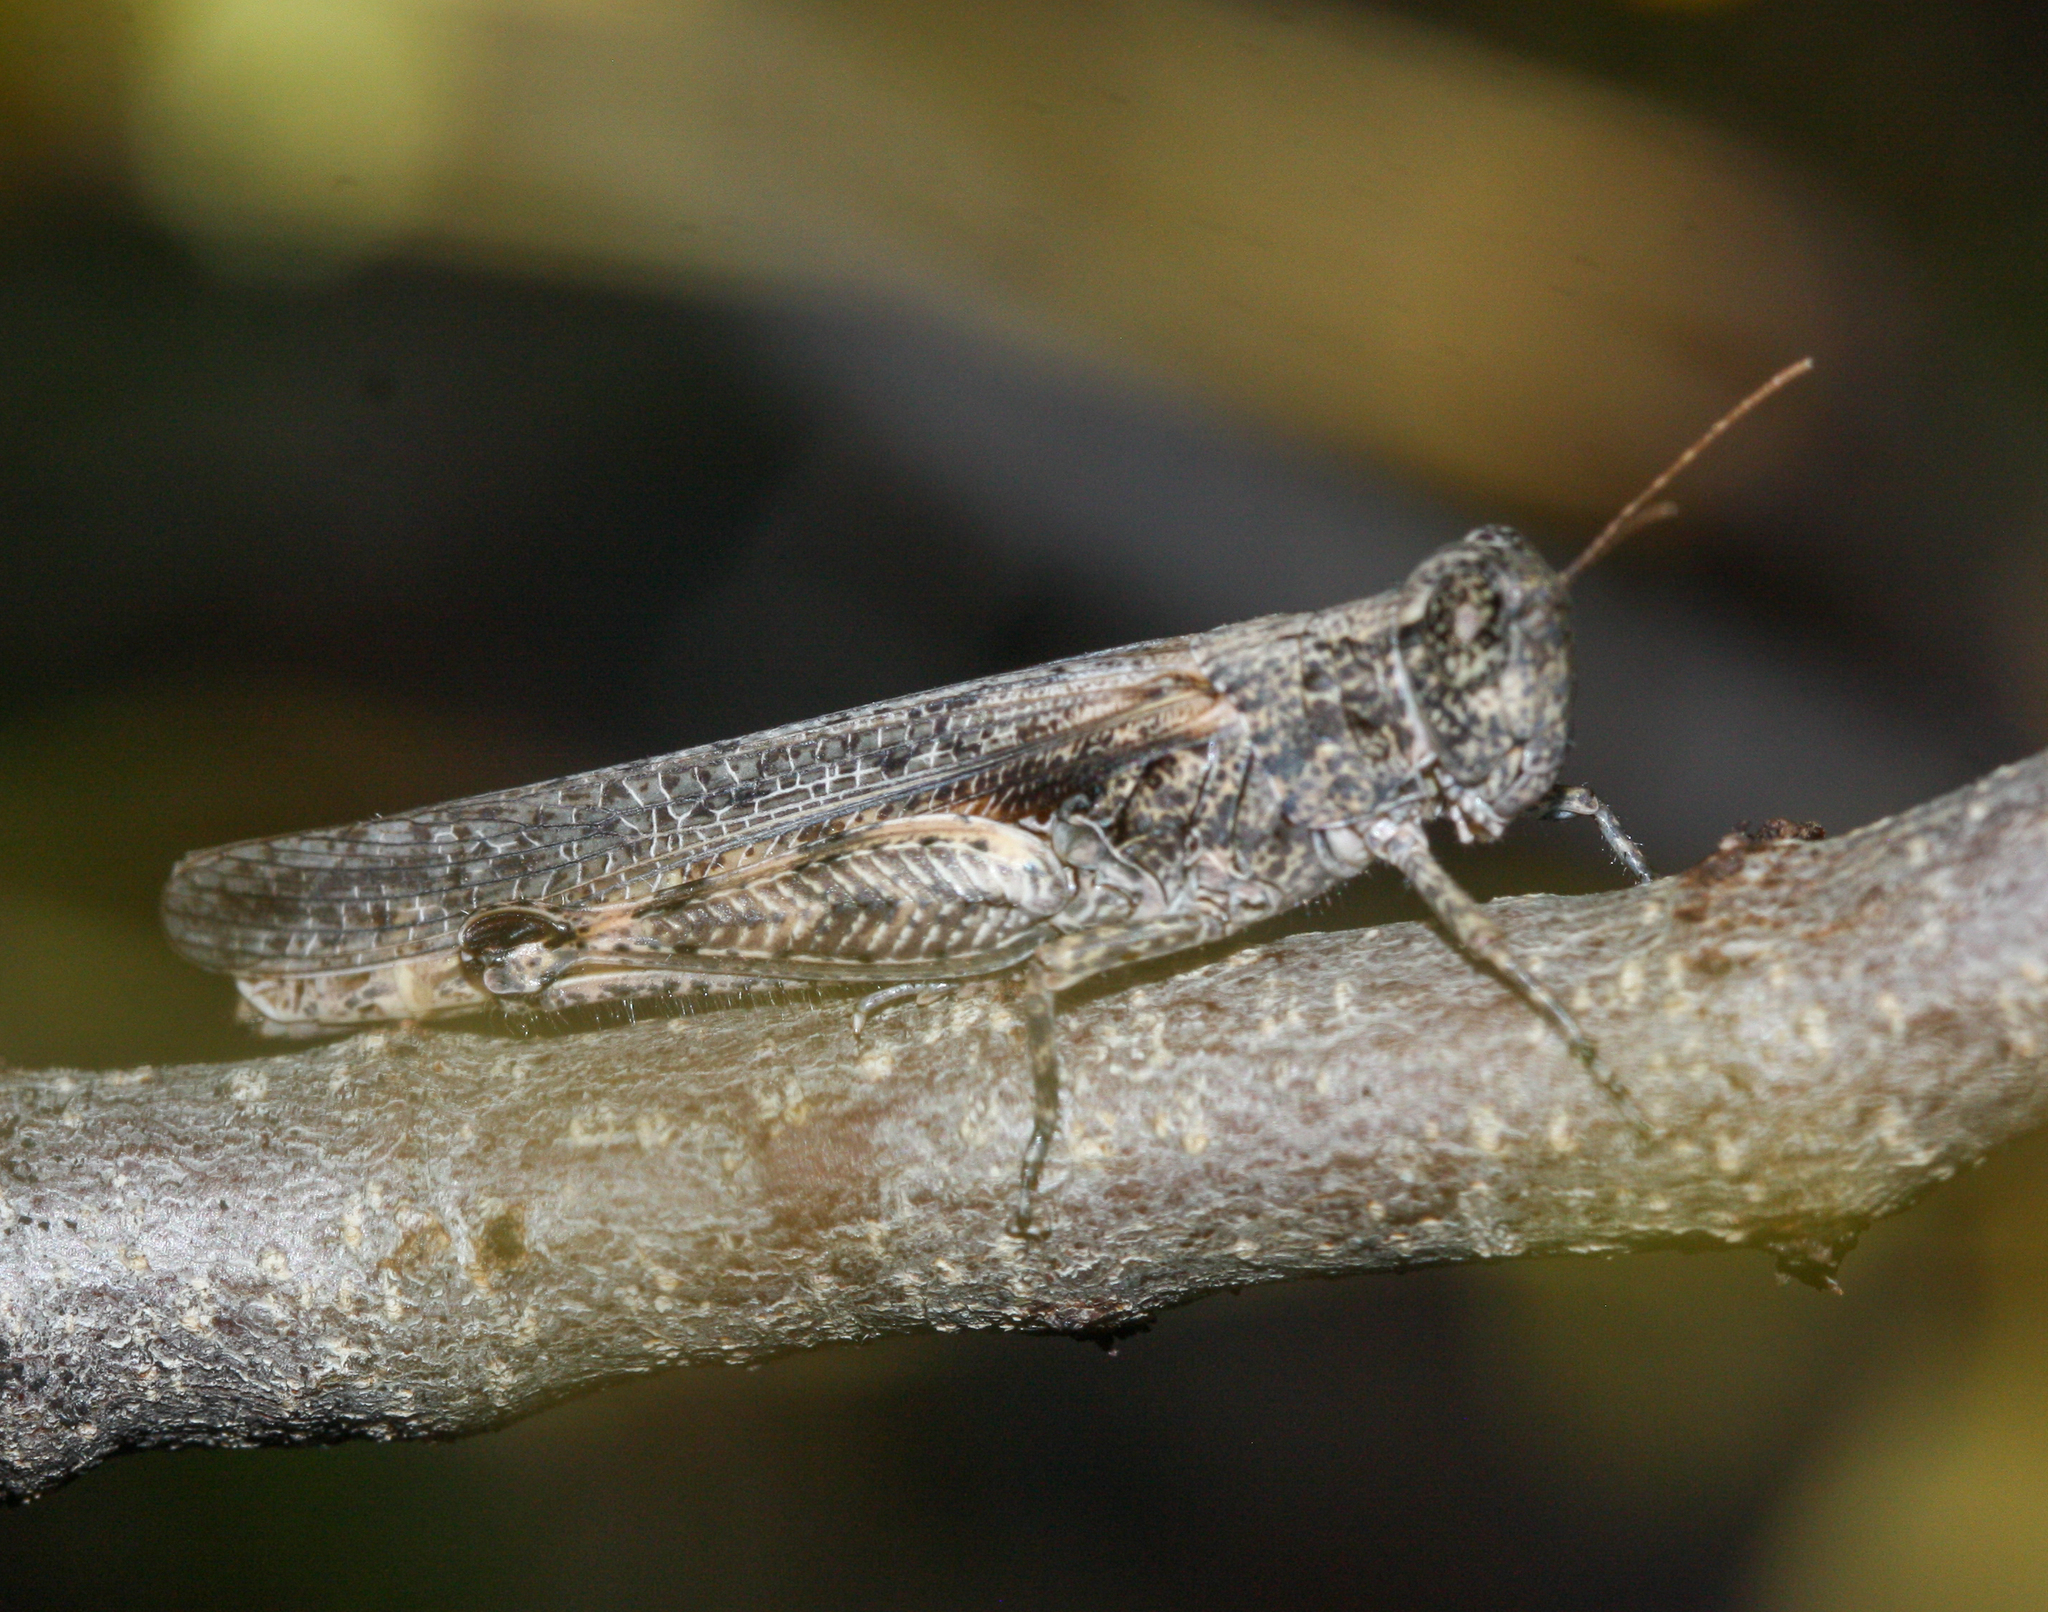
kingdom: Animalia
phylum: Arthropoda
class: Insecta
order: Orthoptera
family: Acrididae
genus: Ligurotettix
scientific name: Ligurotettix coquilletti
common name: Desert clicker grasshopper
